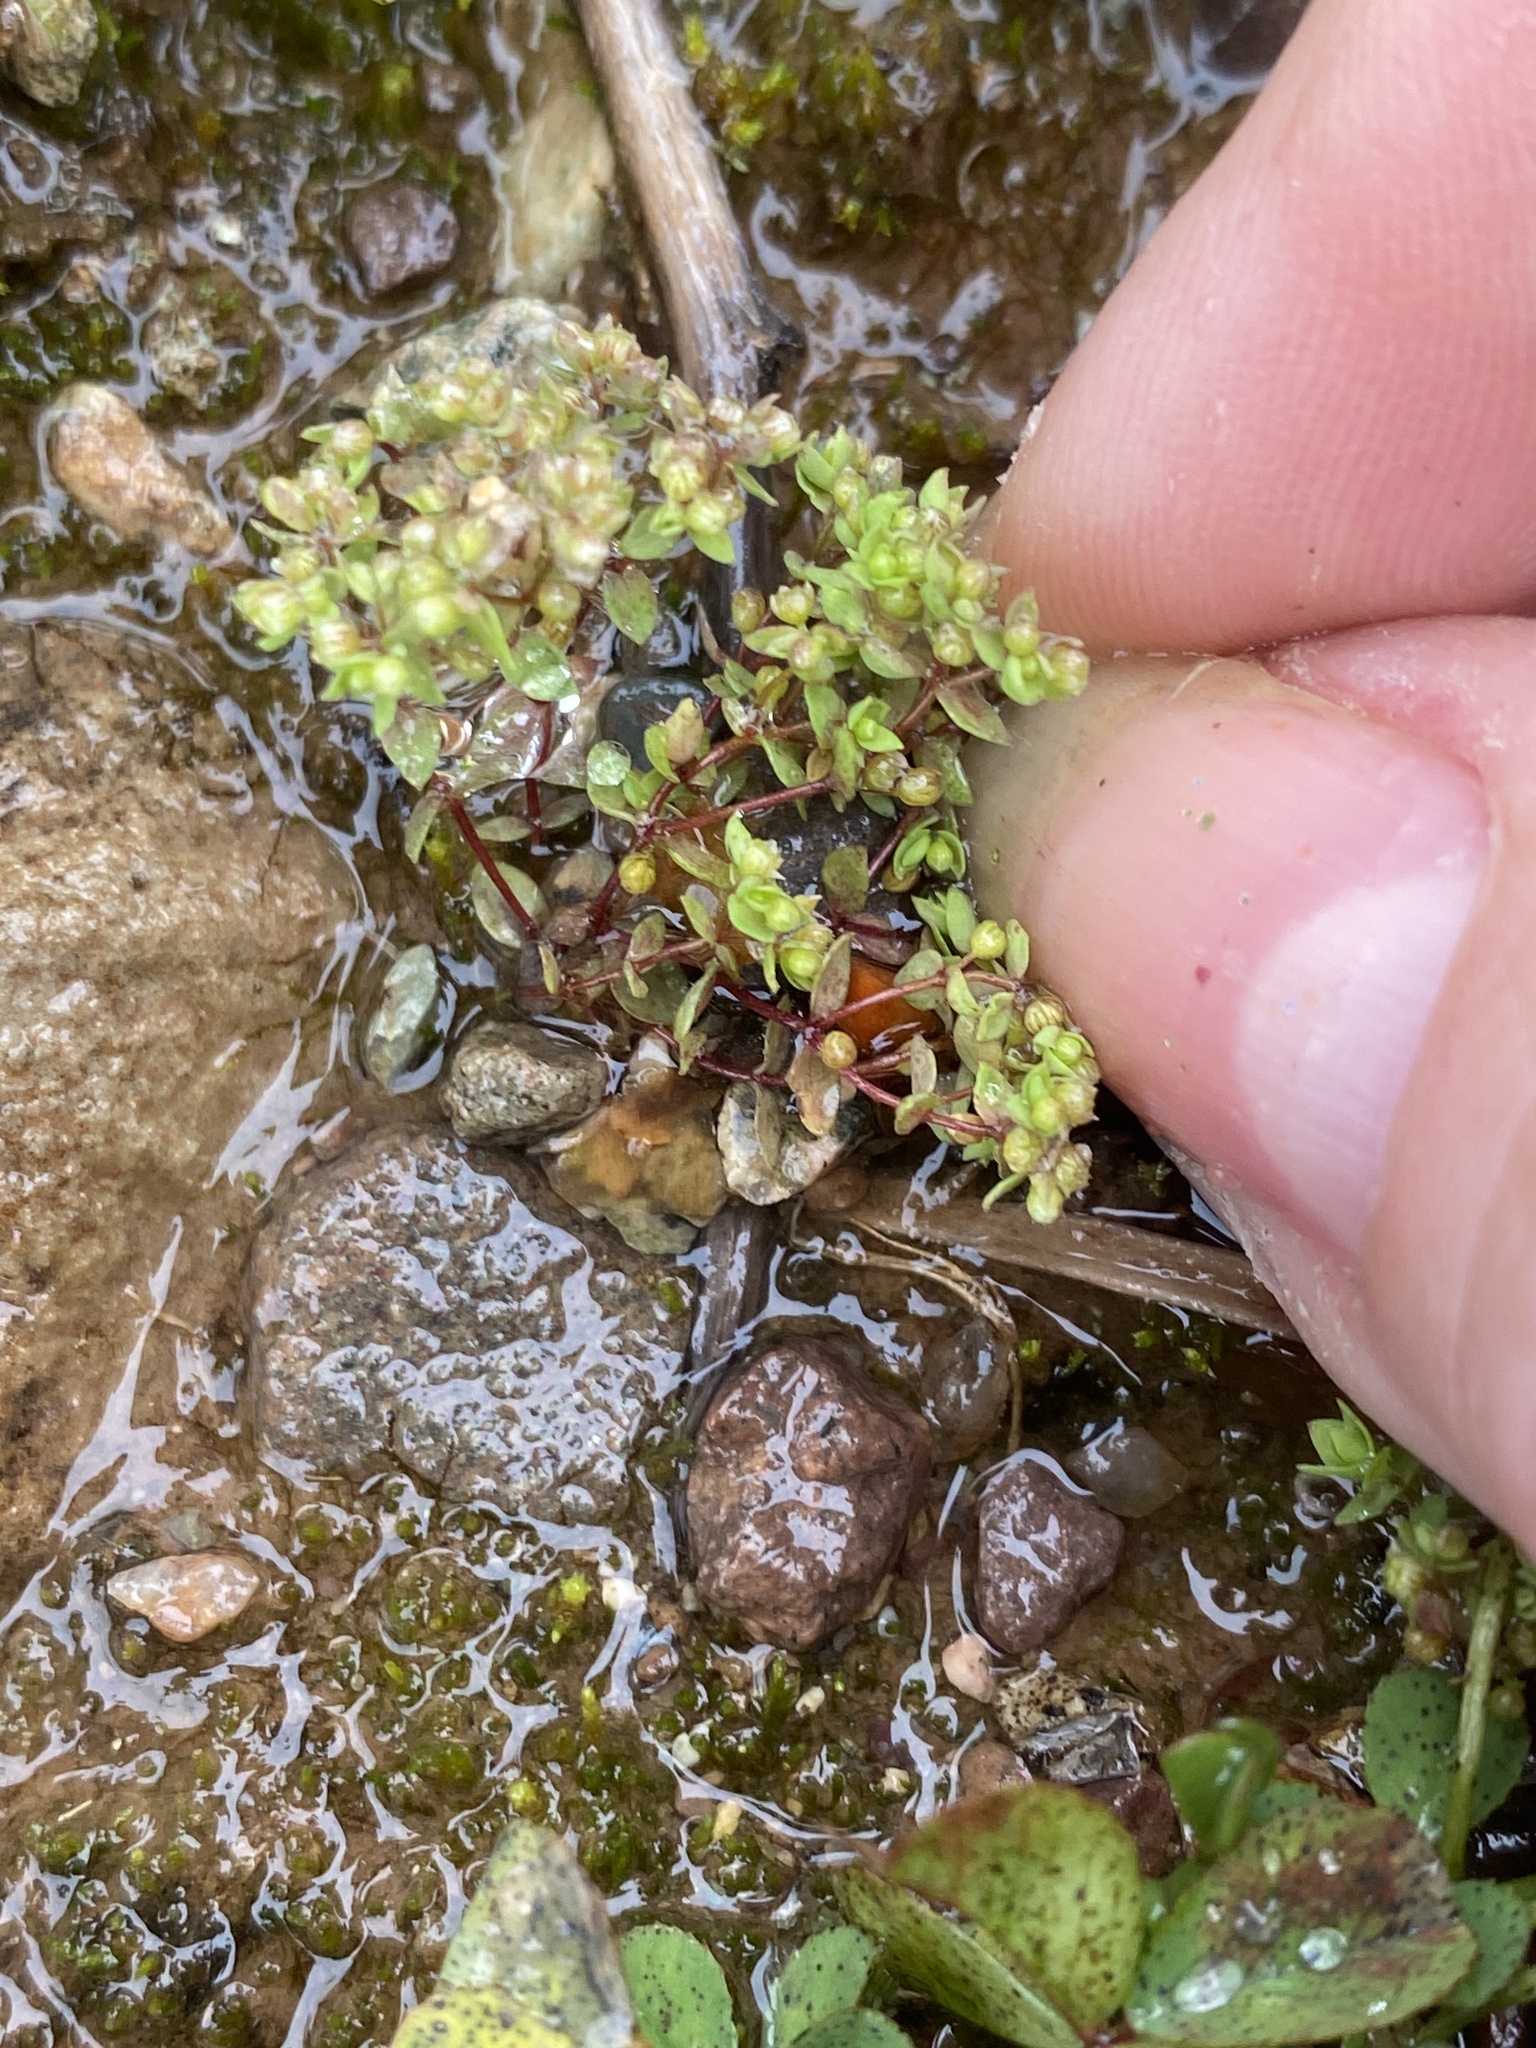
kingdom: Plantae
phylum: Tracheophyta
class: Magnoliopsida
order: Malpighiales
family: Linaceae
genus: Radiola
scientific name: Radiola linoides
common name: Allseed
